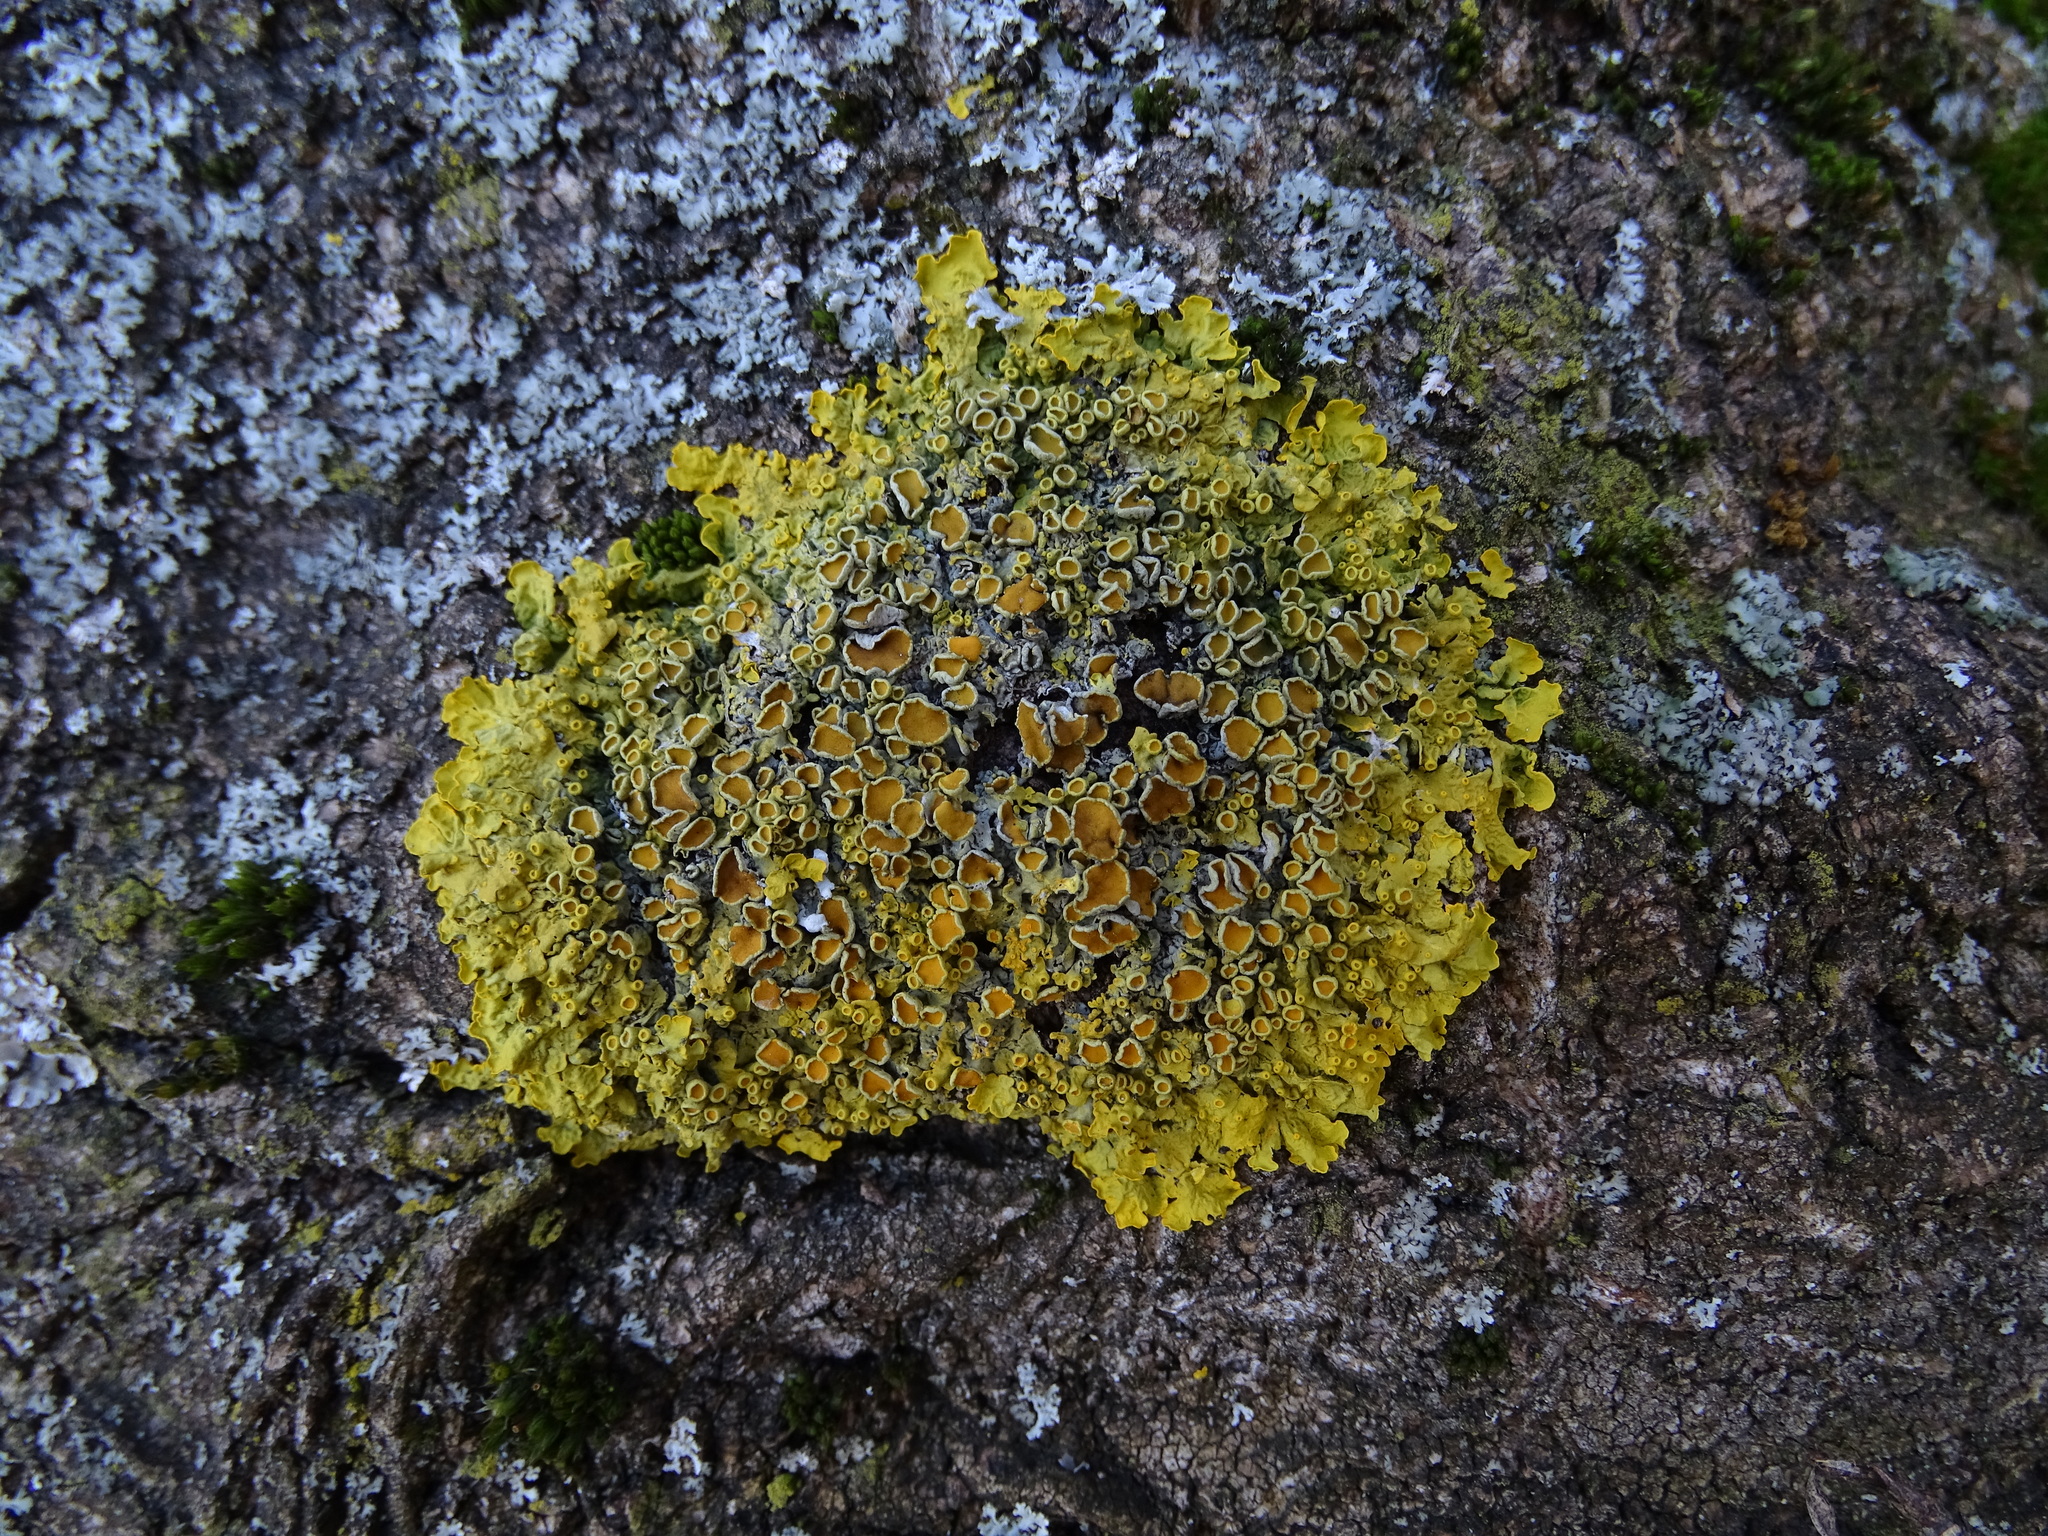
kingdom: Fungi
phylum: Ascomycota
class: Lecanoromycetes
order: Teloschistales
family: Teloschistaceae
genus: Xanthoria
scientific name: Xanthoria parietina
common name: Common orange lichen
